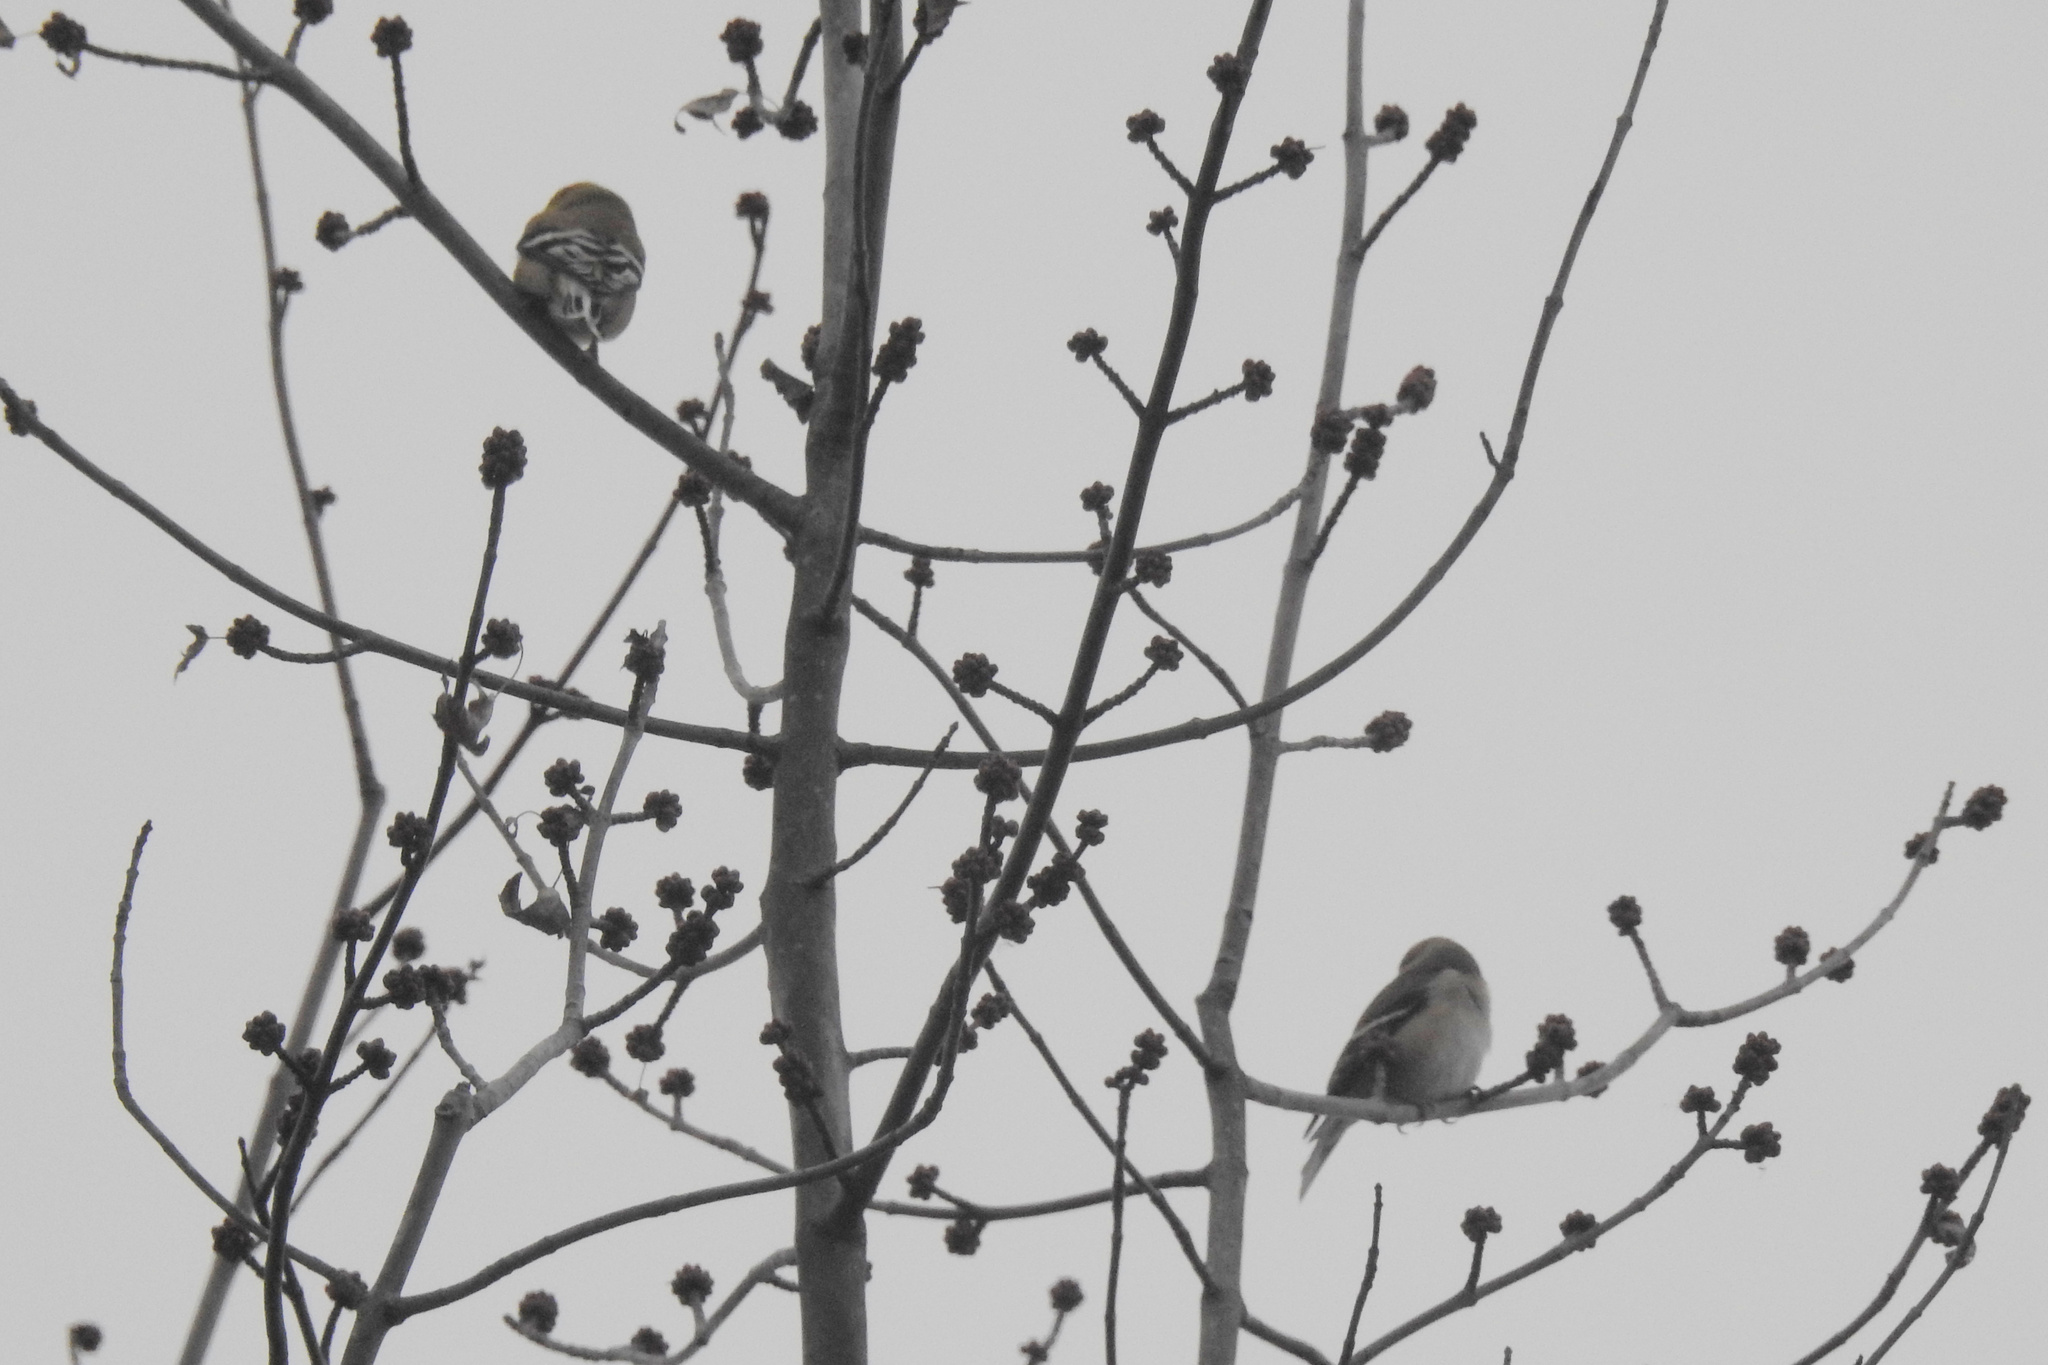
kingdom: Animalia
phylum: Chordata
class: Aves
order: Passeriformes
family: Fringillidae
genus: Spinus
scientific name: Spinus tristis
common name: American goldfinch
